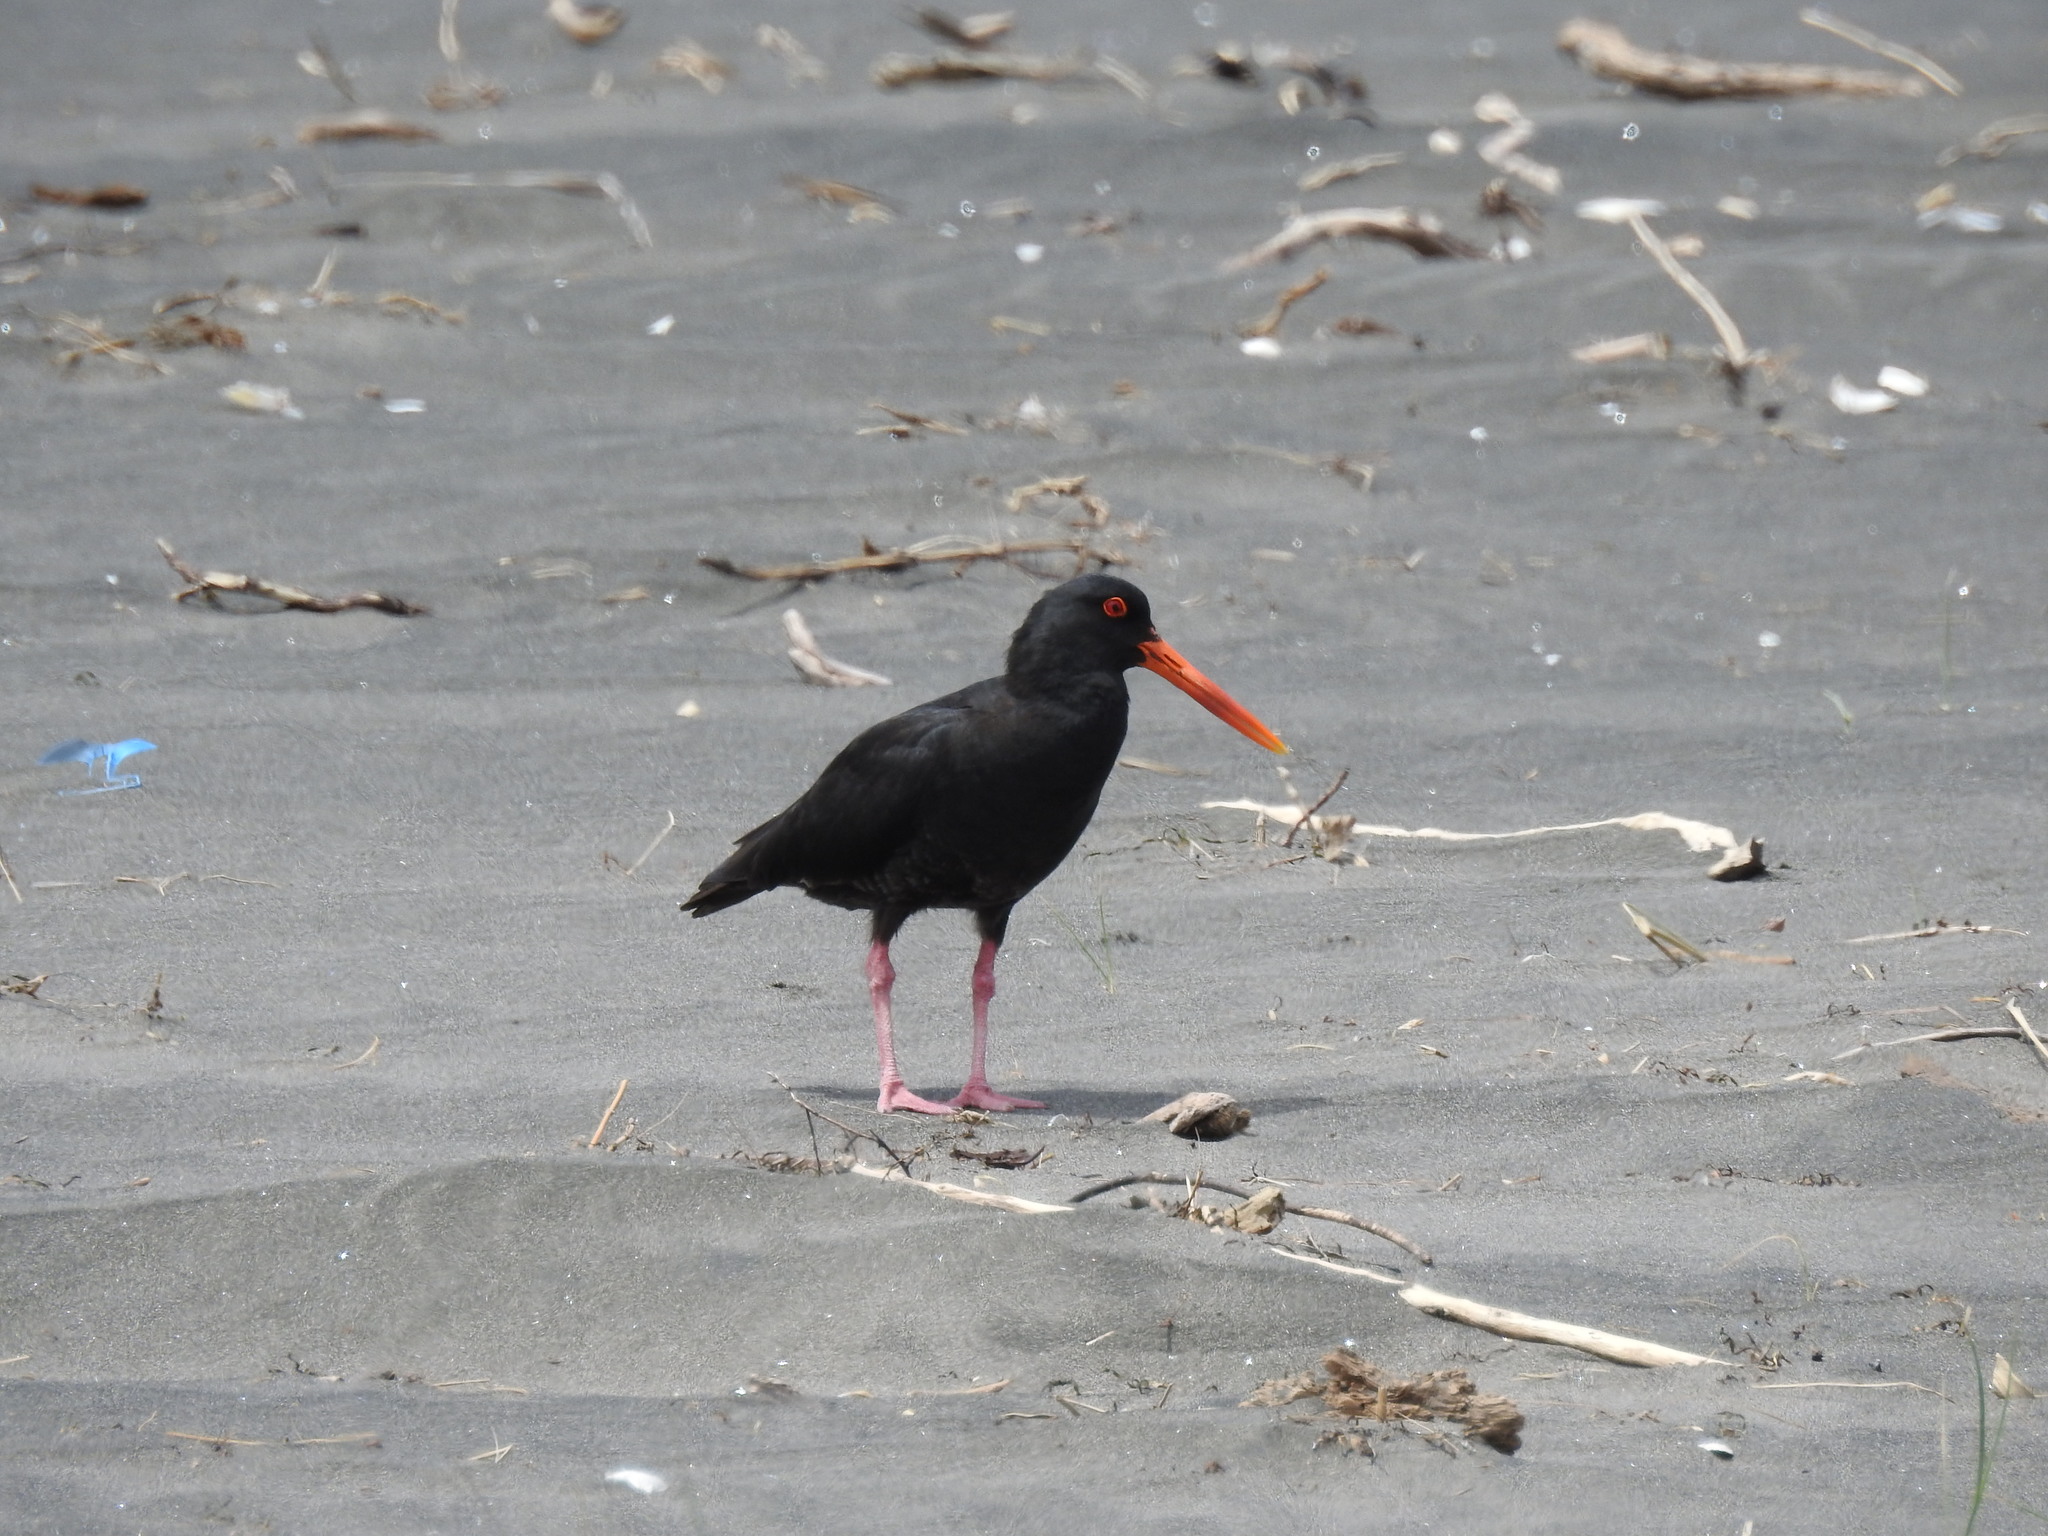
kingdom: Animalia
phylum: Chordata
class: Aves
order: Charadriiformes
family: Haematopodidae
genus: Haematopus
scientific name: Haematopus unicolor
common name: Variable oystercatcher
